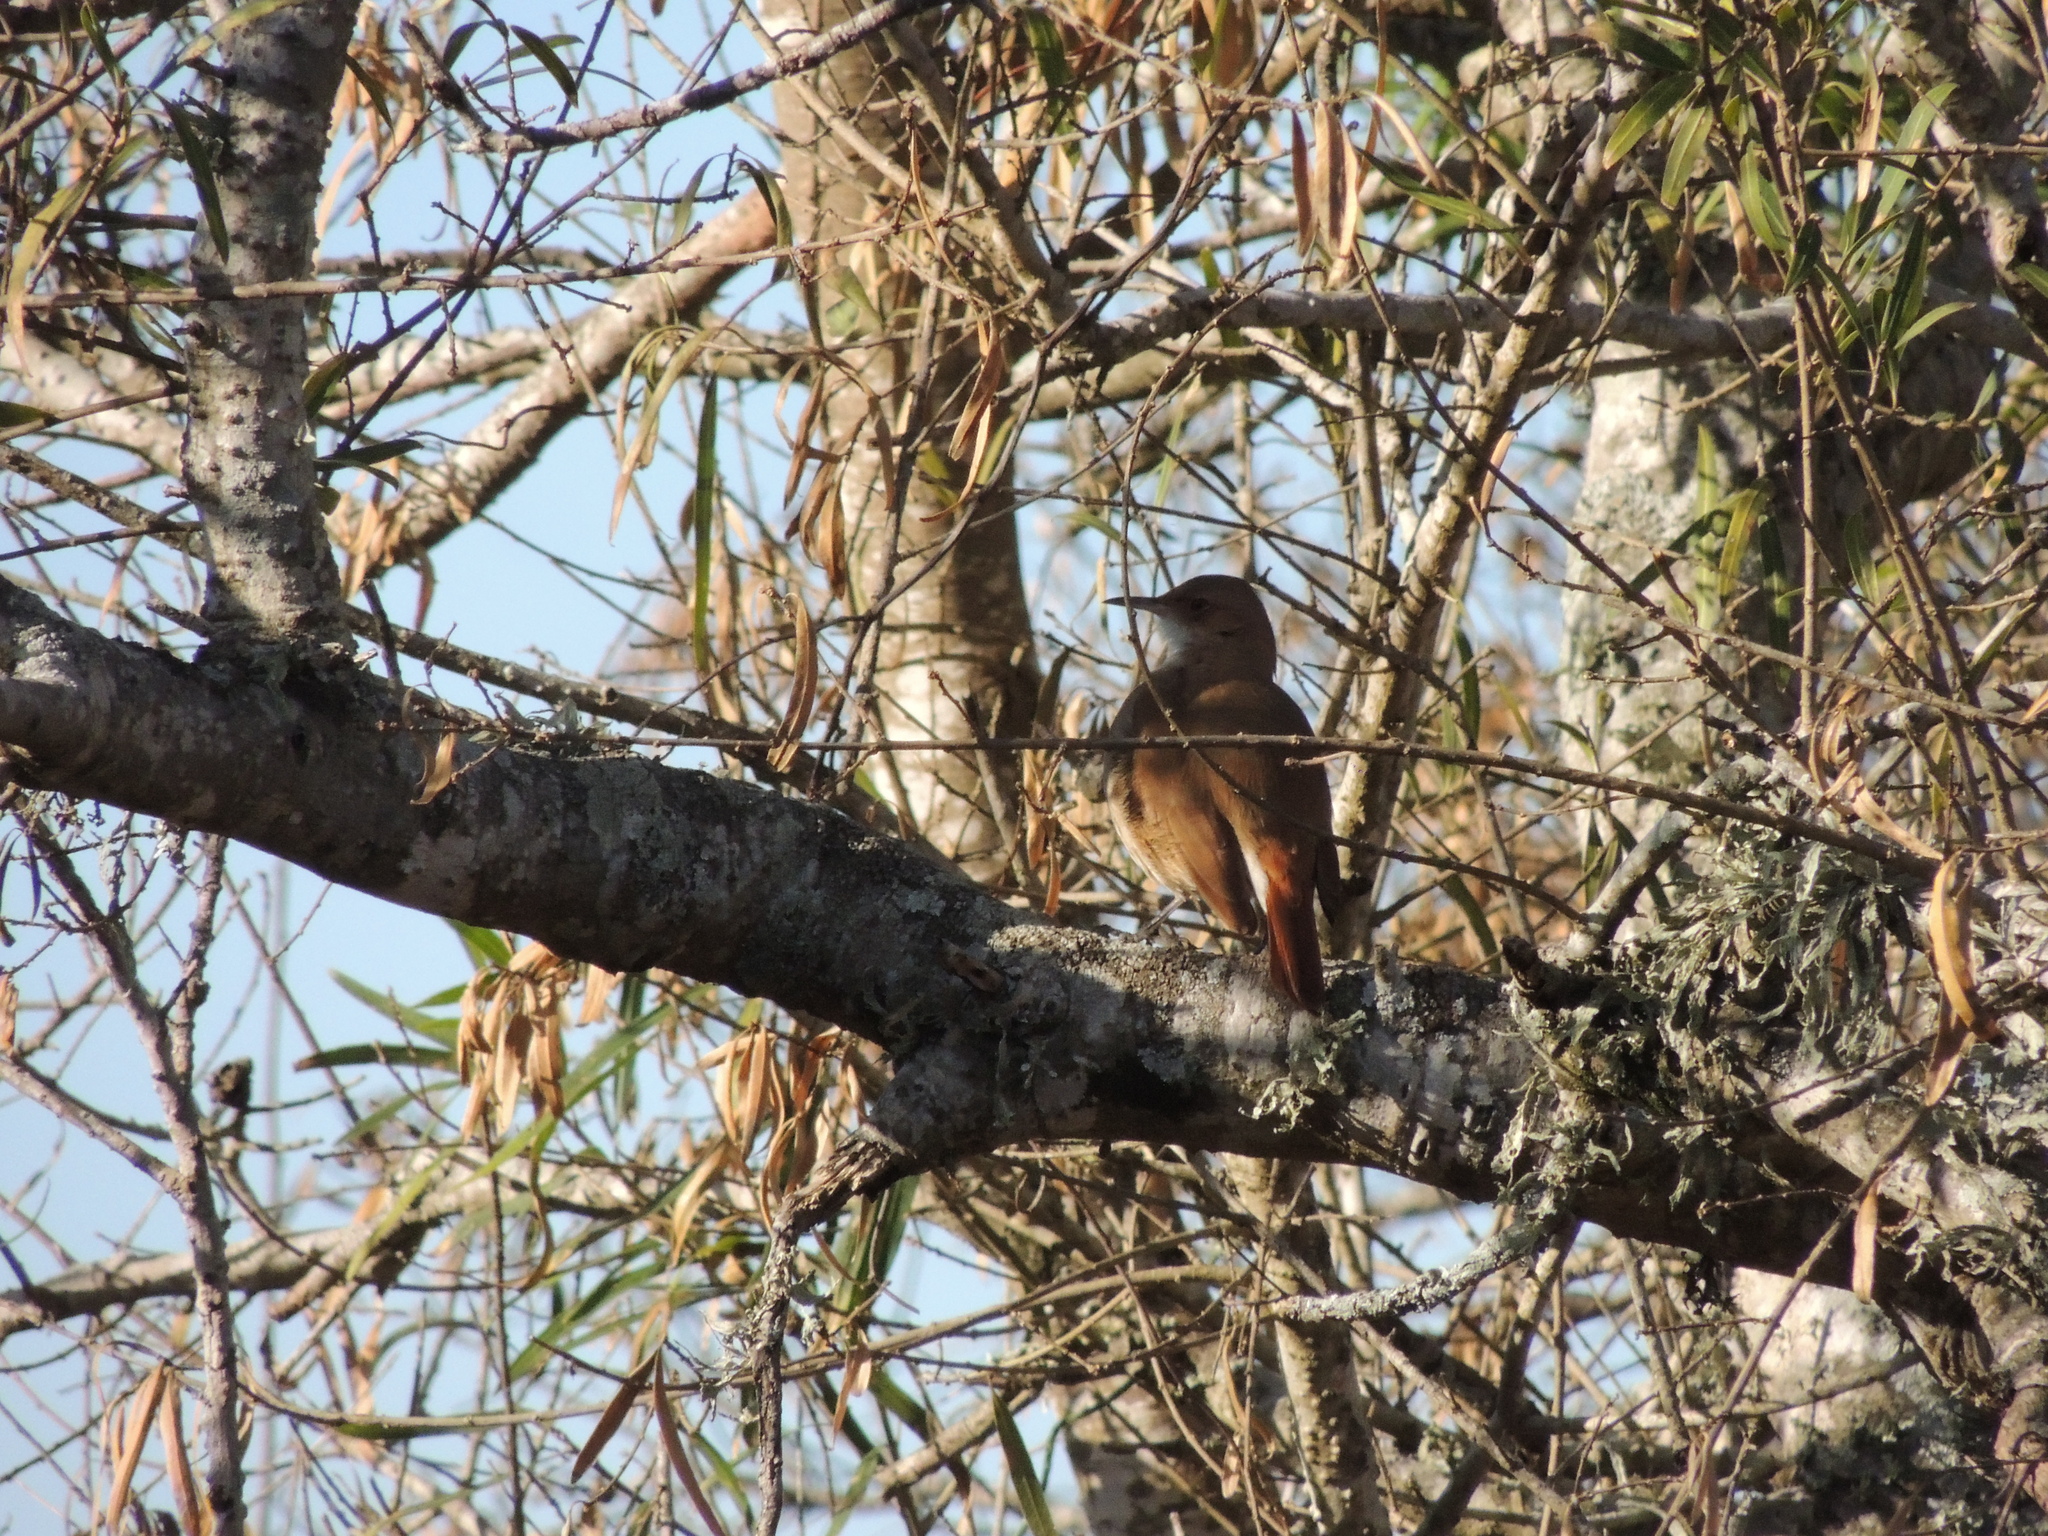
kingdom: Animalia
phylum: Chordata
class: Aves
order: Passeriformes
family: Furnariidae
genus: Furnarius
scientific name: Furnarius rufus
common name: Rufous hornero
